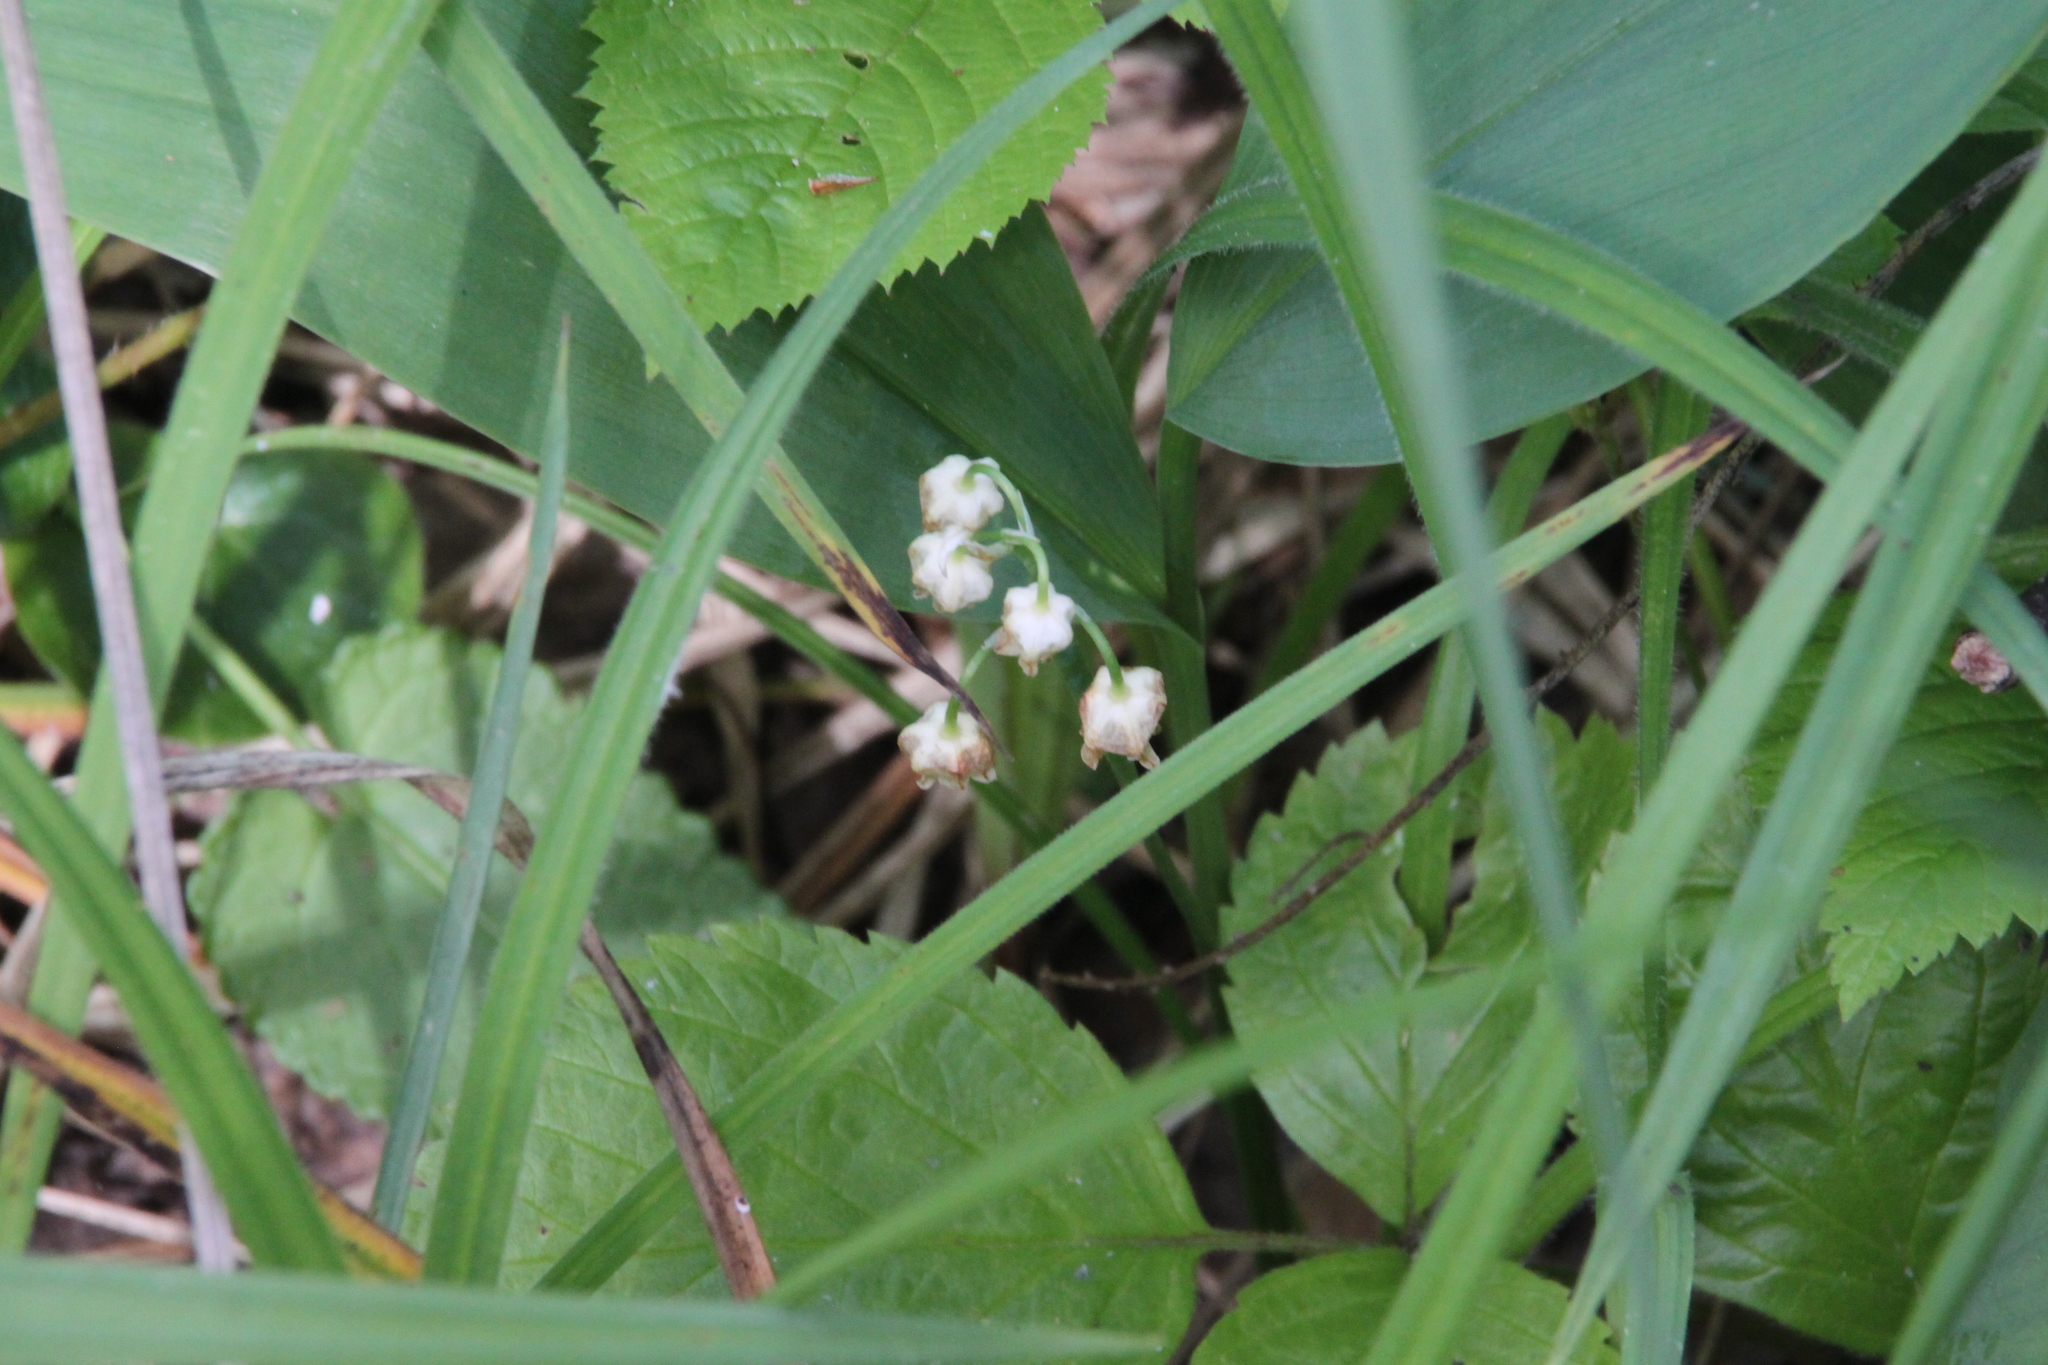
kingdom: Plantae
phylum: Tracheophyta
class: Liliopsida
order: Asparagales
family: Asparagaceae
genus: Convallaria
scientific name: Convallaria majalis
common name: Lily-of-the-valley
